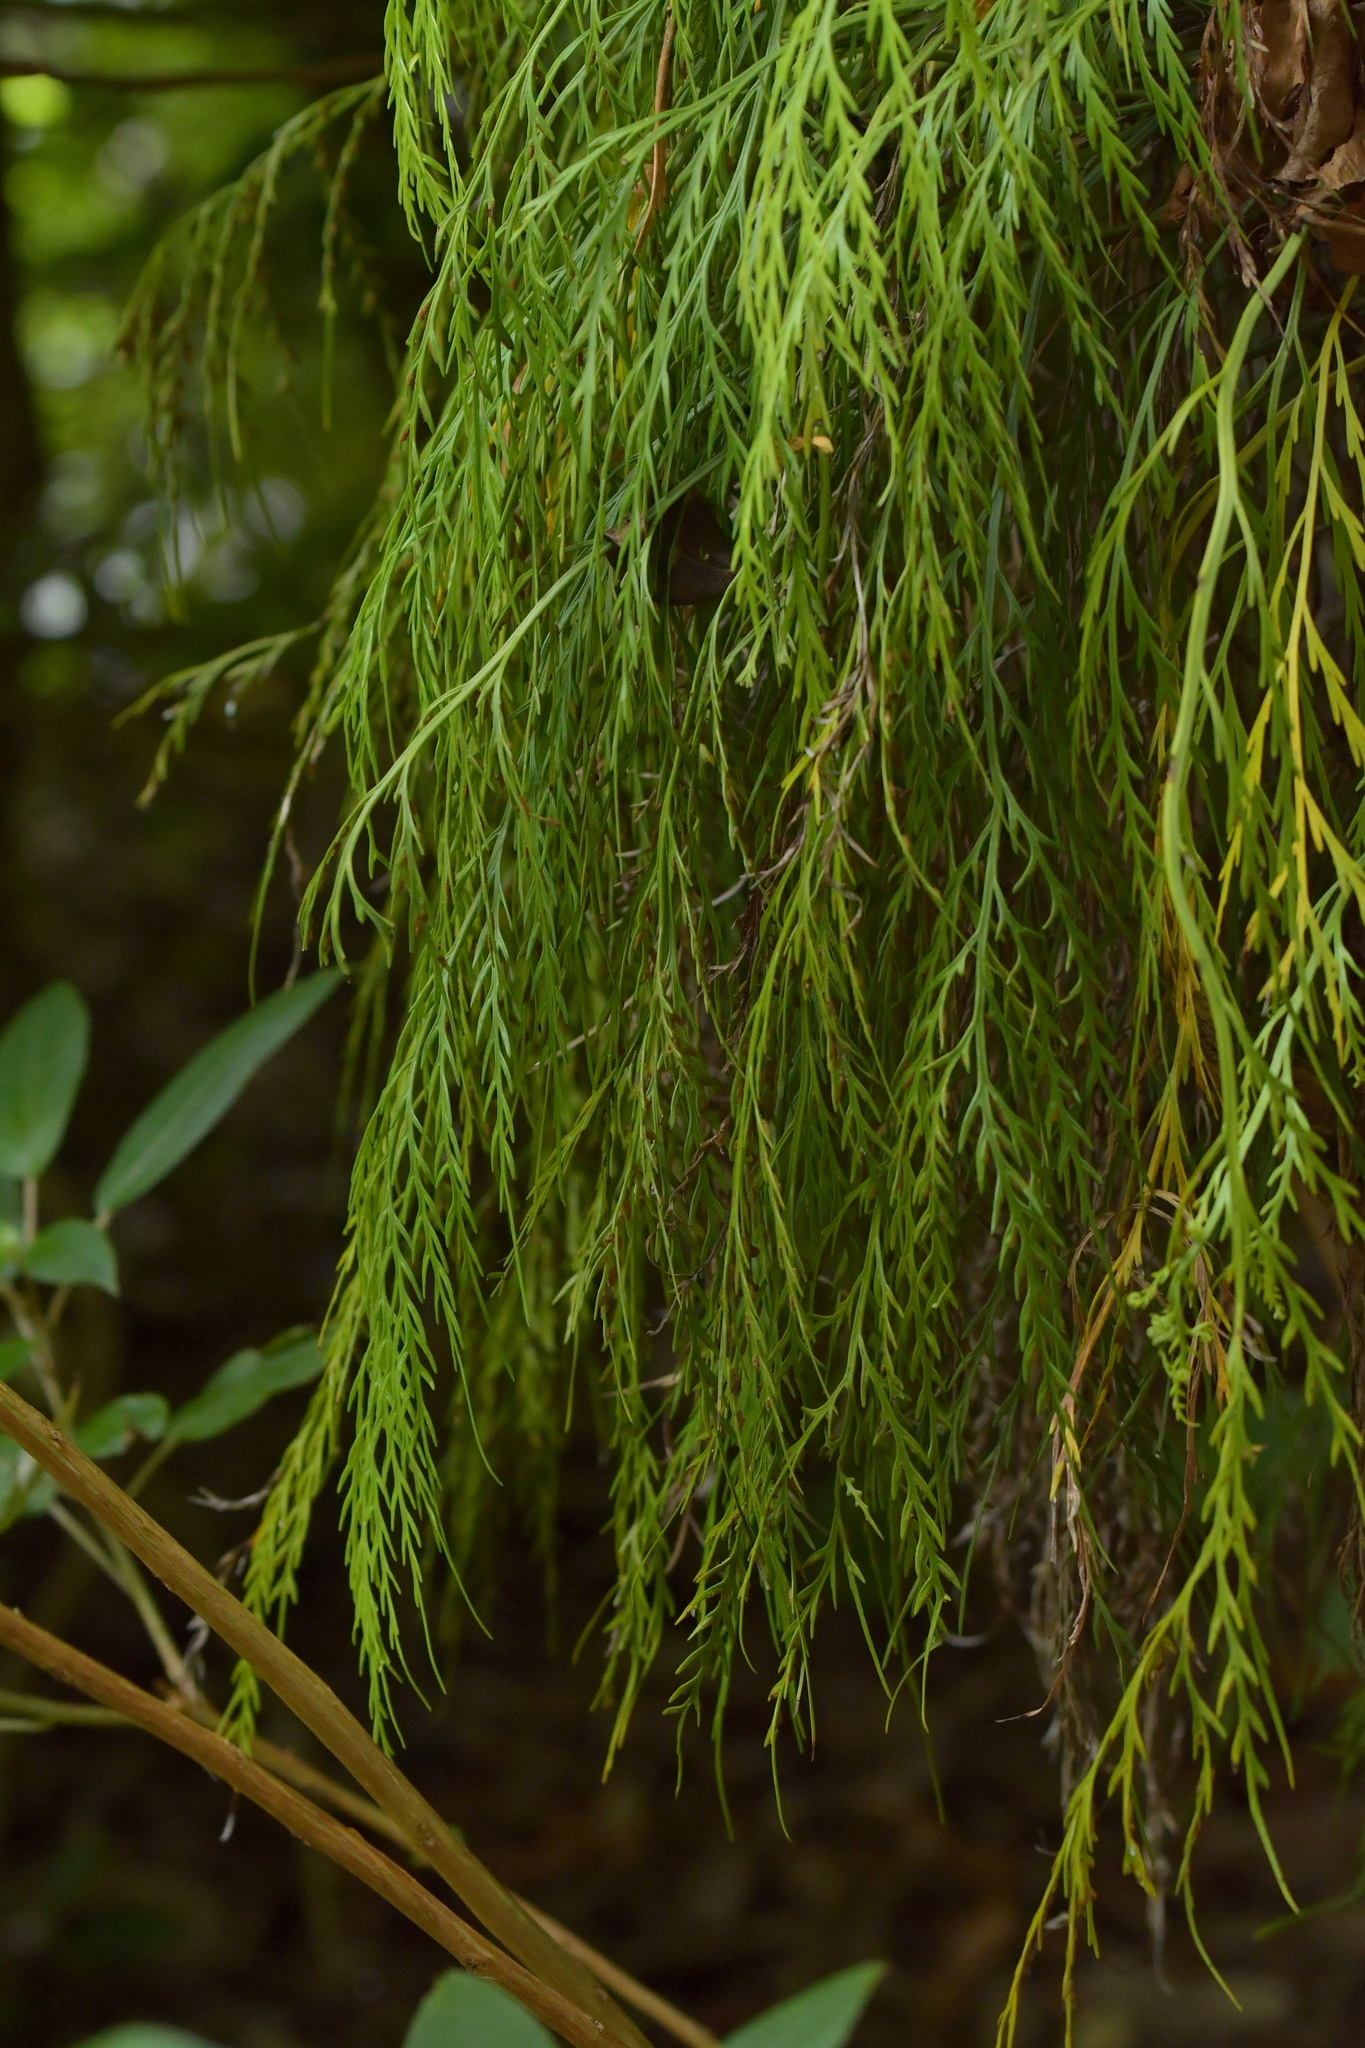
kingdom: Plantae
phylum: Tracheophyta
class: Polypodiopsida
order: Polypodiales
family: Aspleniaceae
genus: Asplenium
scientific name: Asplenium flaccidum
